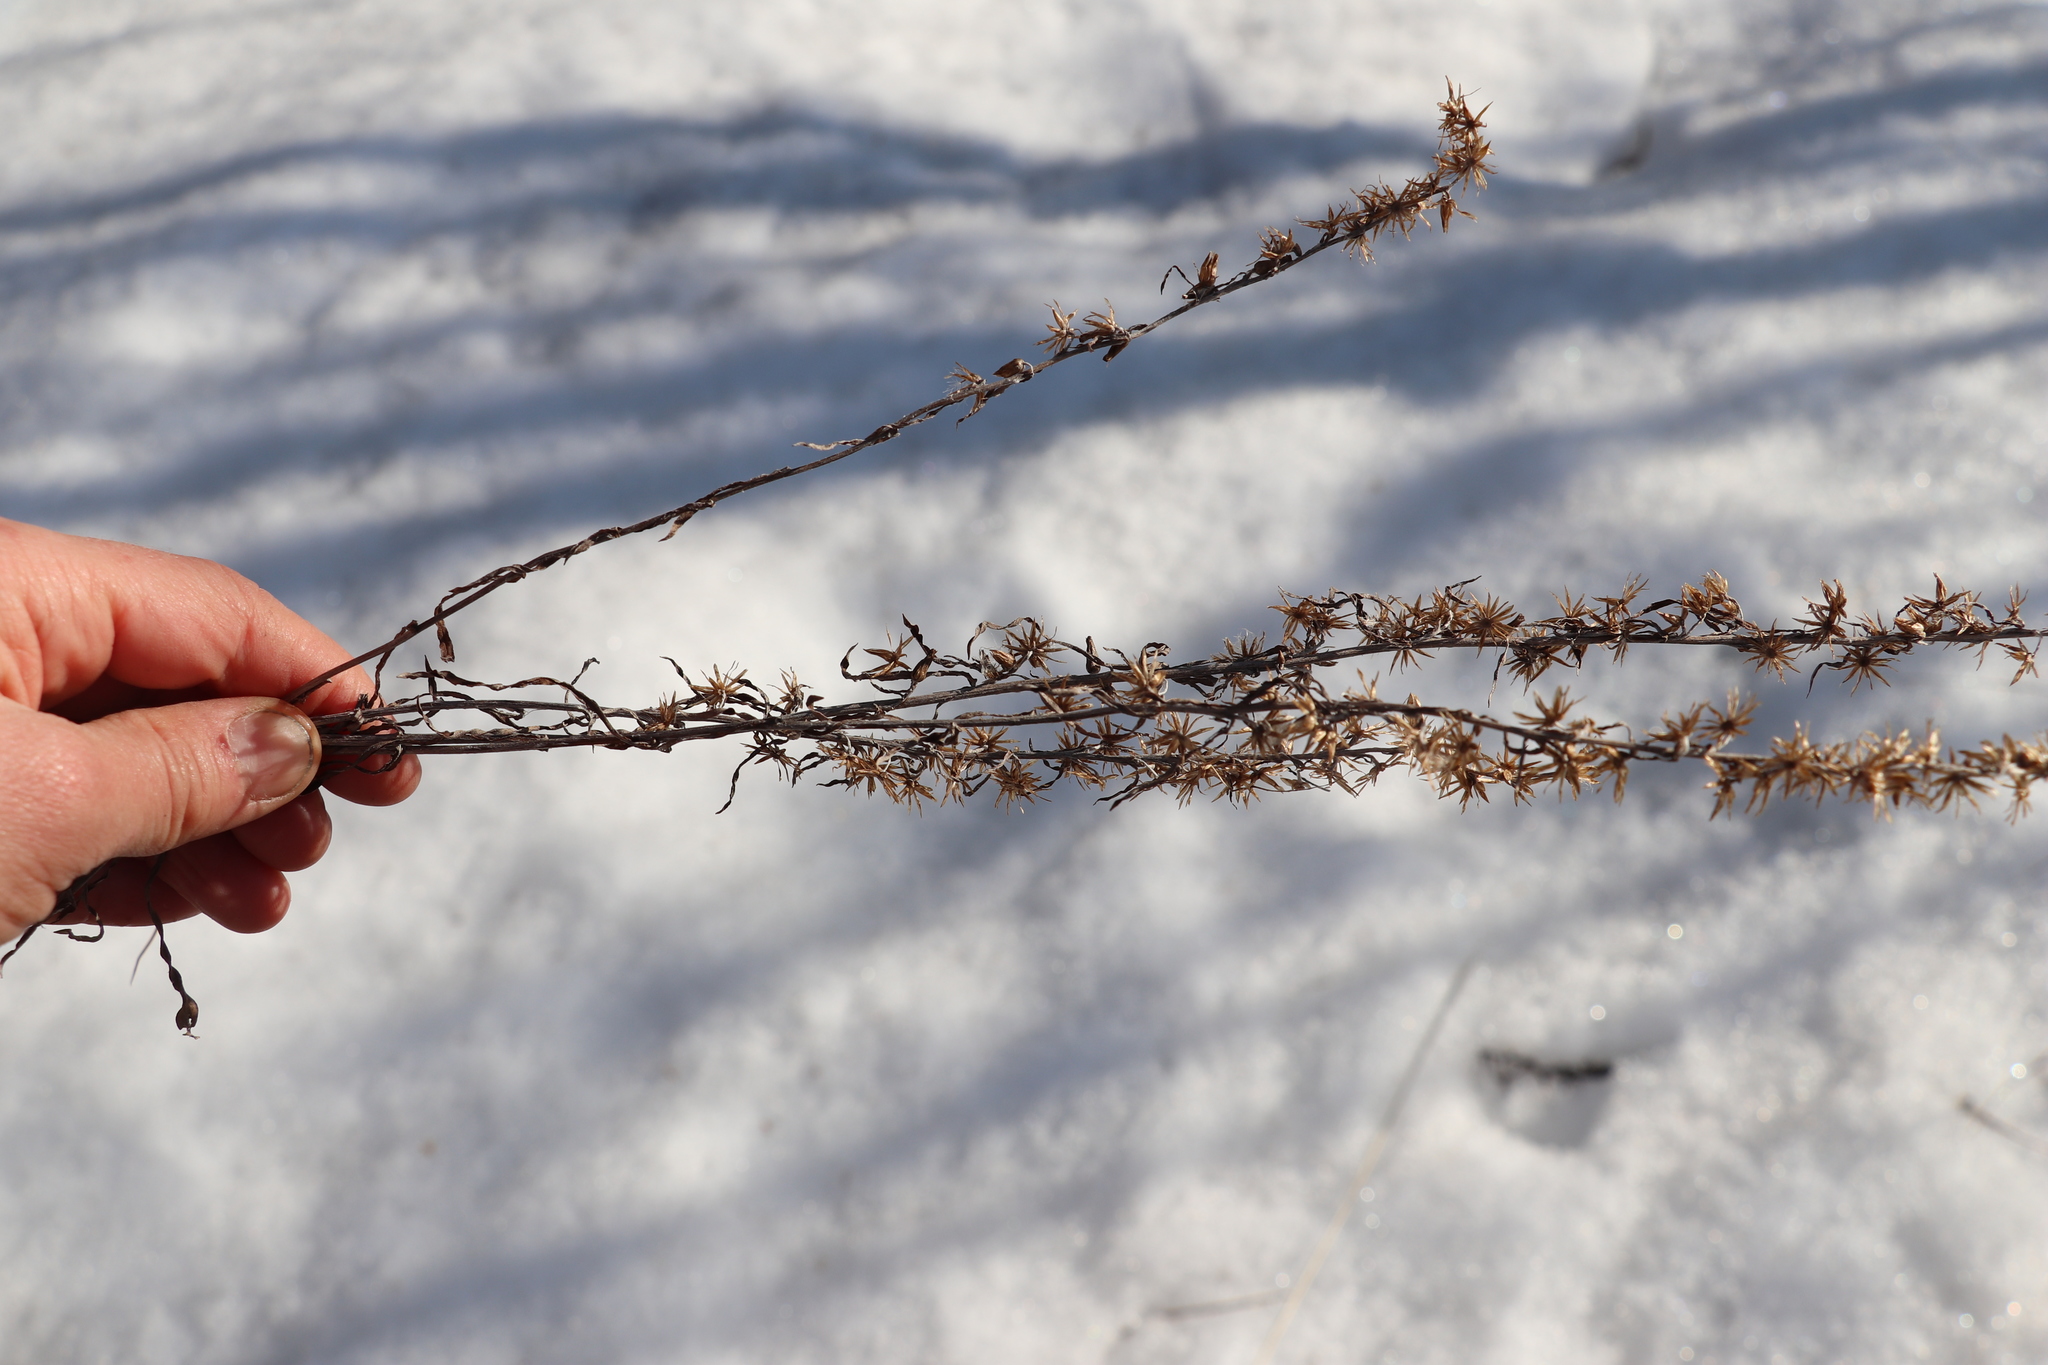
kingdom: Plantae
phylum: Tracheophyta
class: Magnoliopsida
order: Asterales
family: Asteraceae
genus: Omalotheca
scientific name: Omalotheca sylvatica
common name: Heath cudweed
